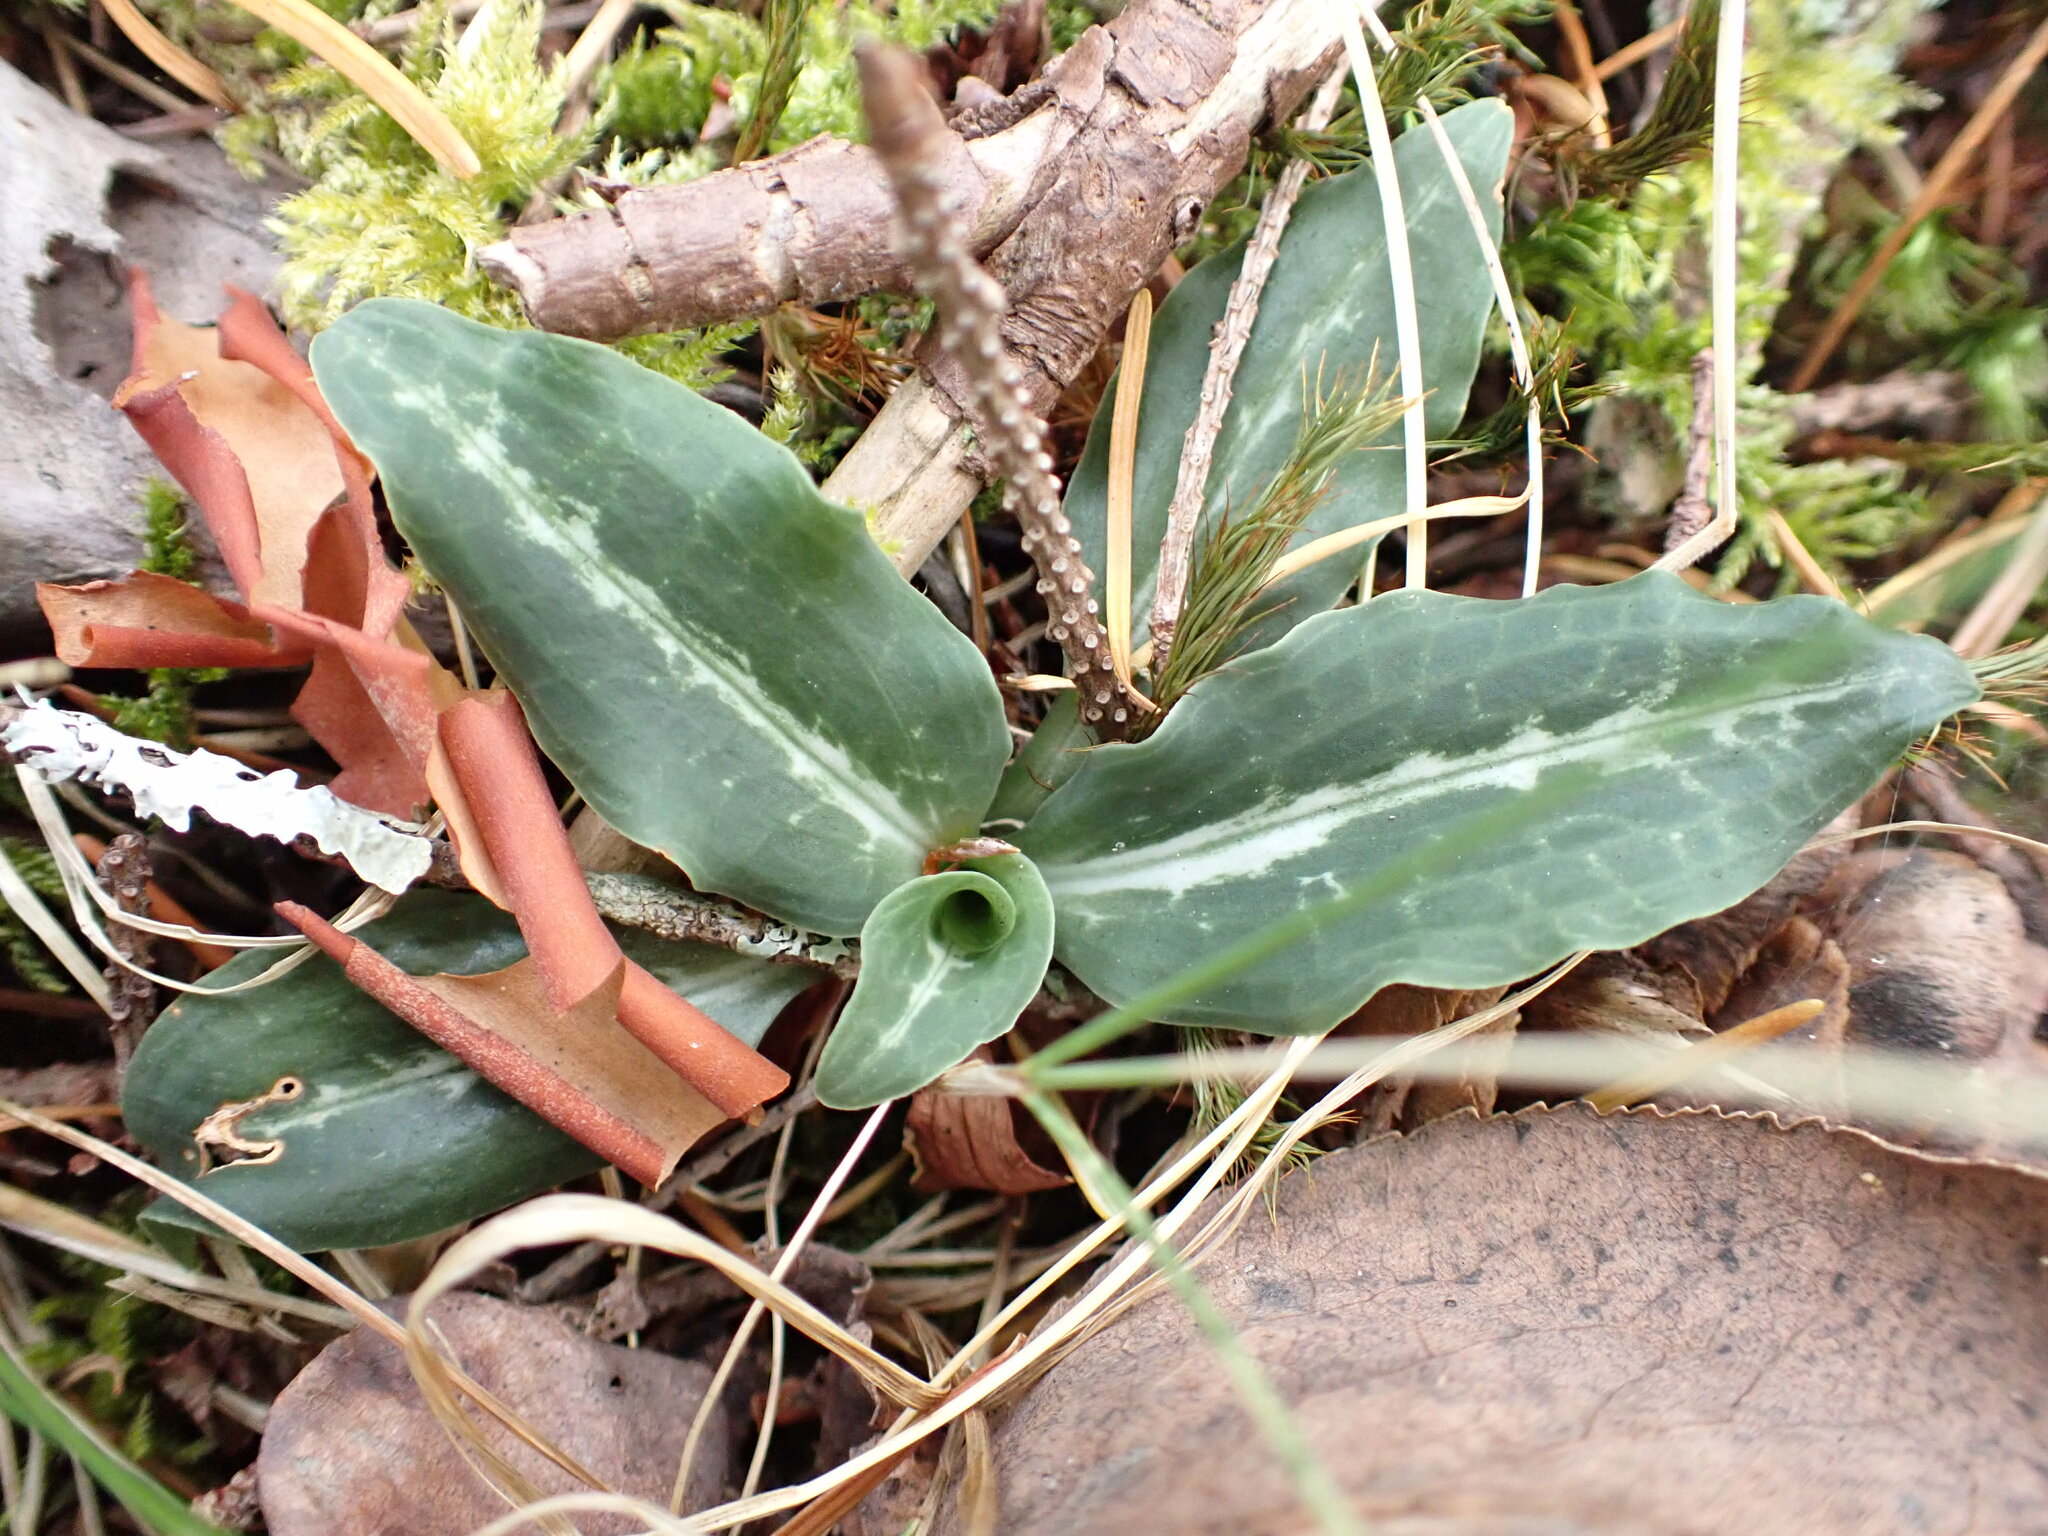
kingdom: Plantae
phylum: Tracheophyta
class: Liliopsida
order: Asparagales
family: Orchidaceae
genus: Goodyera
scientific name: Goodyera oblongifolia
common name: Giant rattlesnake-plantain
